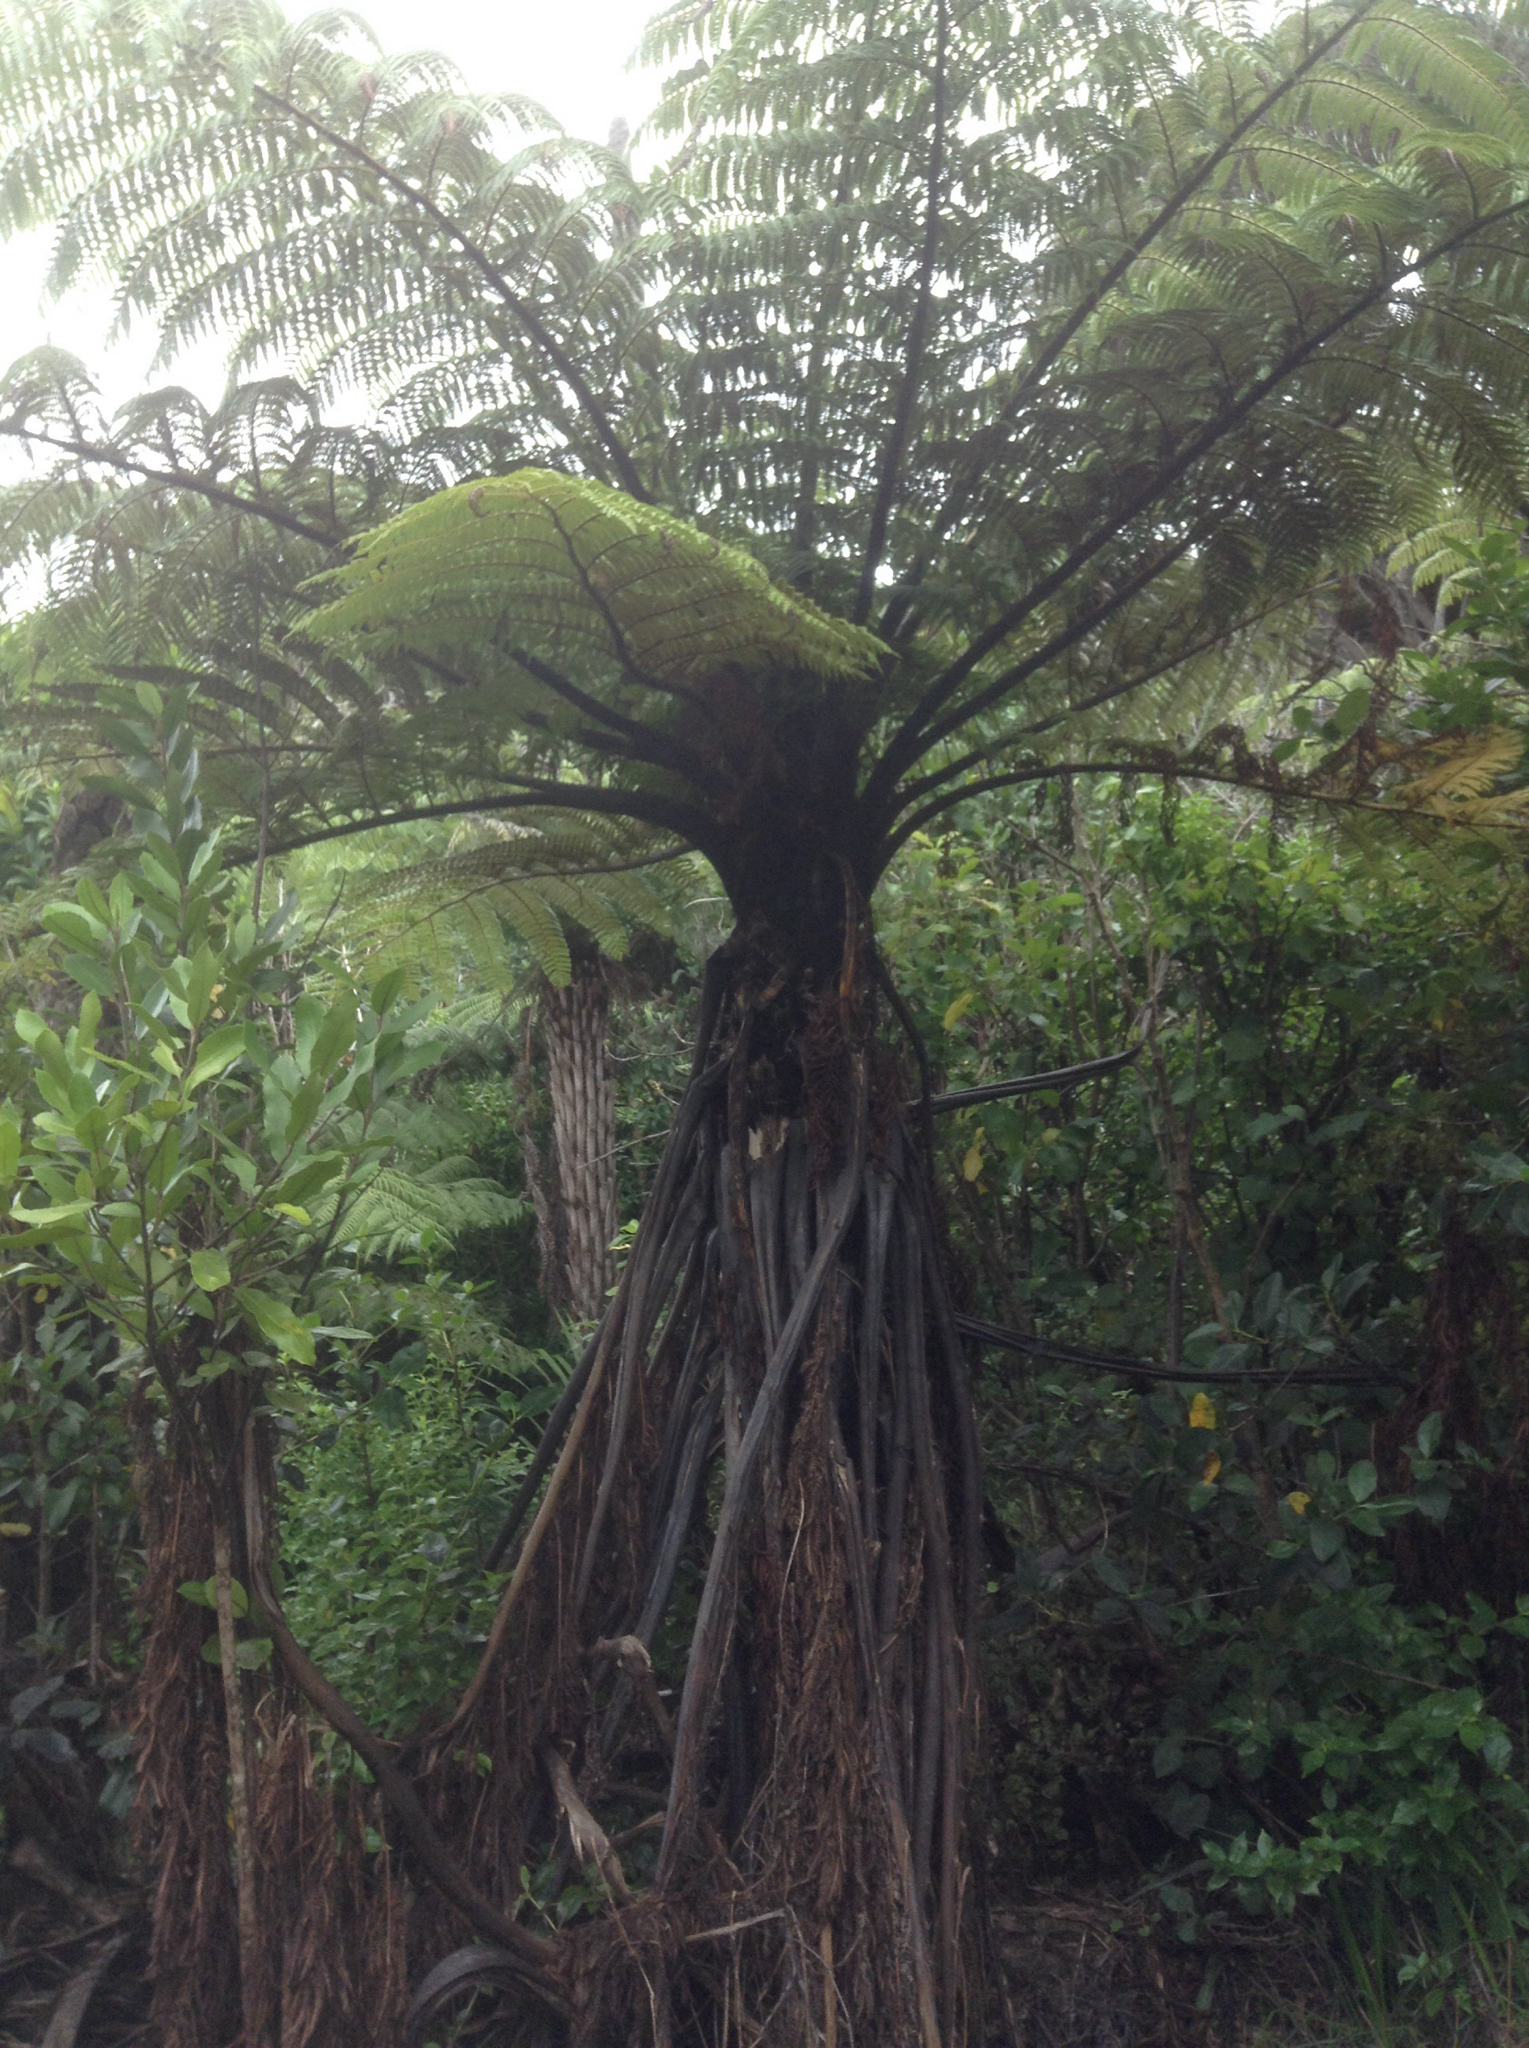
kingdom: Plantae
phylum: Tracheophyta
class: Polypodiopsida
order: Cyatheales
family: Cyatheaceae
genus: Sphaeropteris
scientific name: Sphaeropteris medullaris
